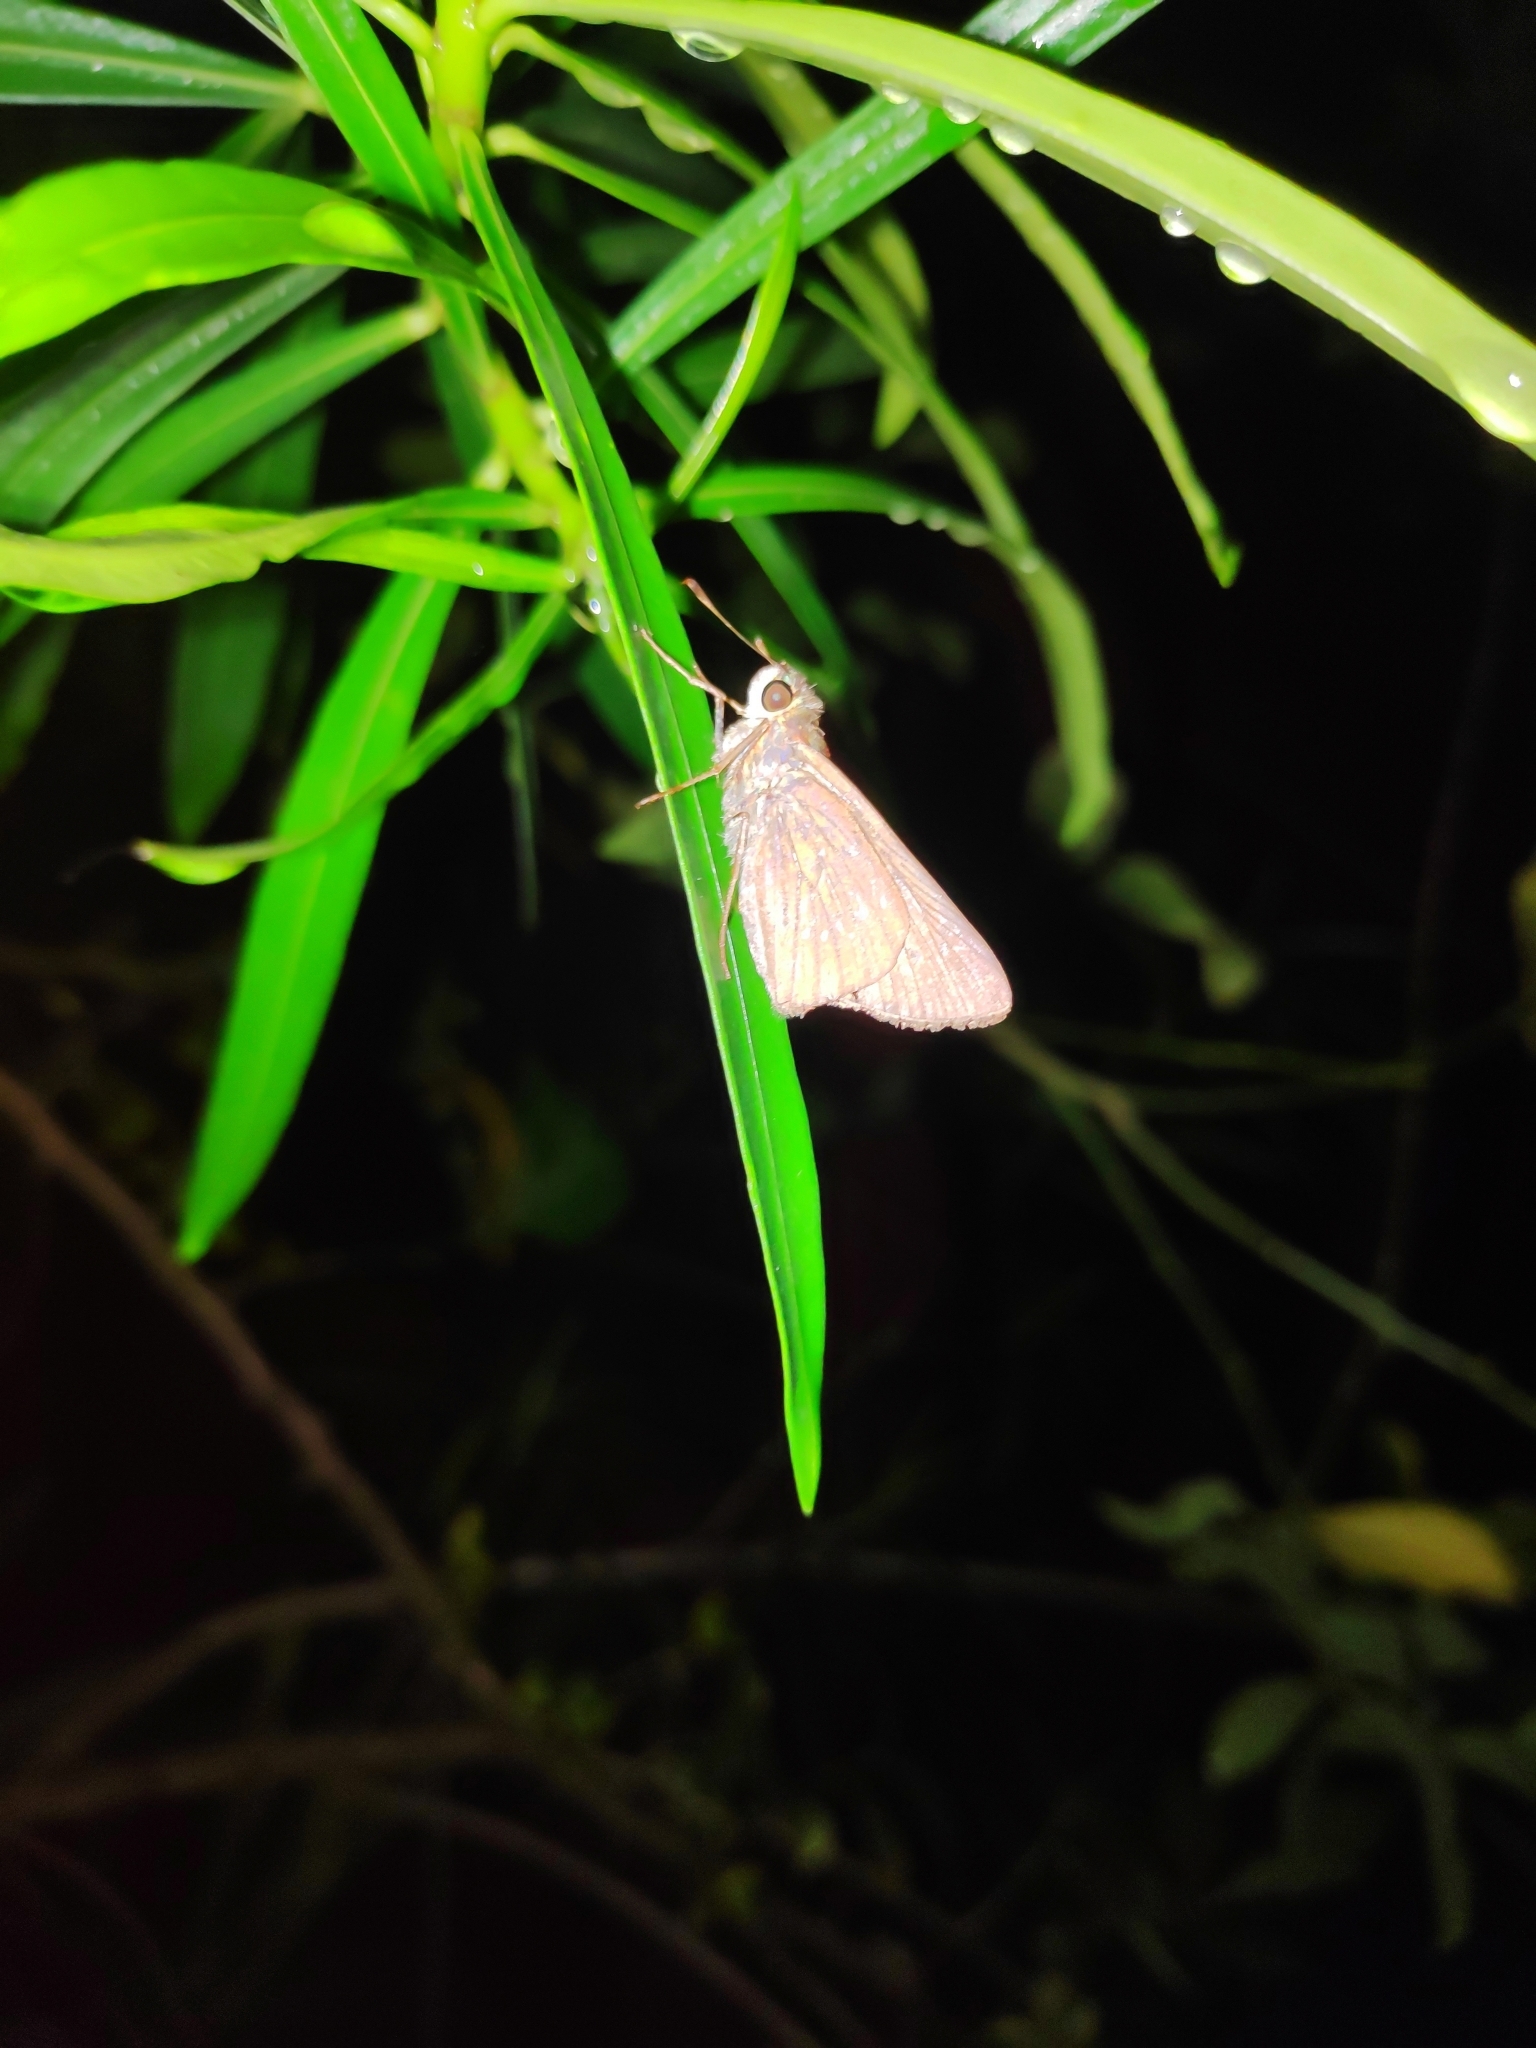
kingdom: Animalia
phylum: Arthropoda
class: Insecta
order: Lepidoptera
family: Hesperiidae
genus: Borbo
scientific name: Borbo cinnara
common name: Formosan swift
